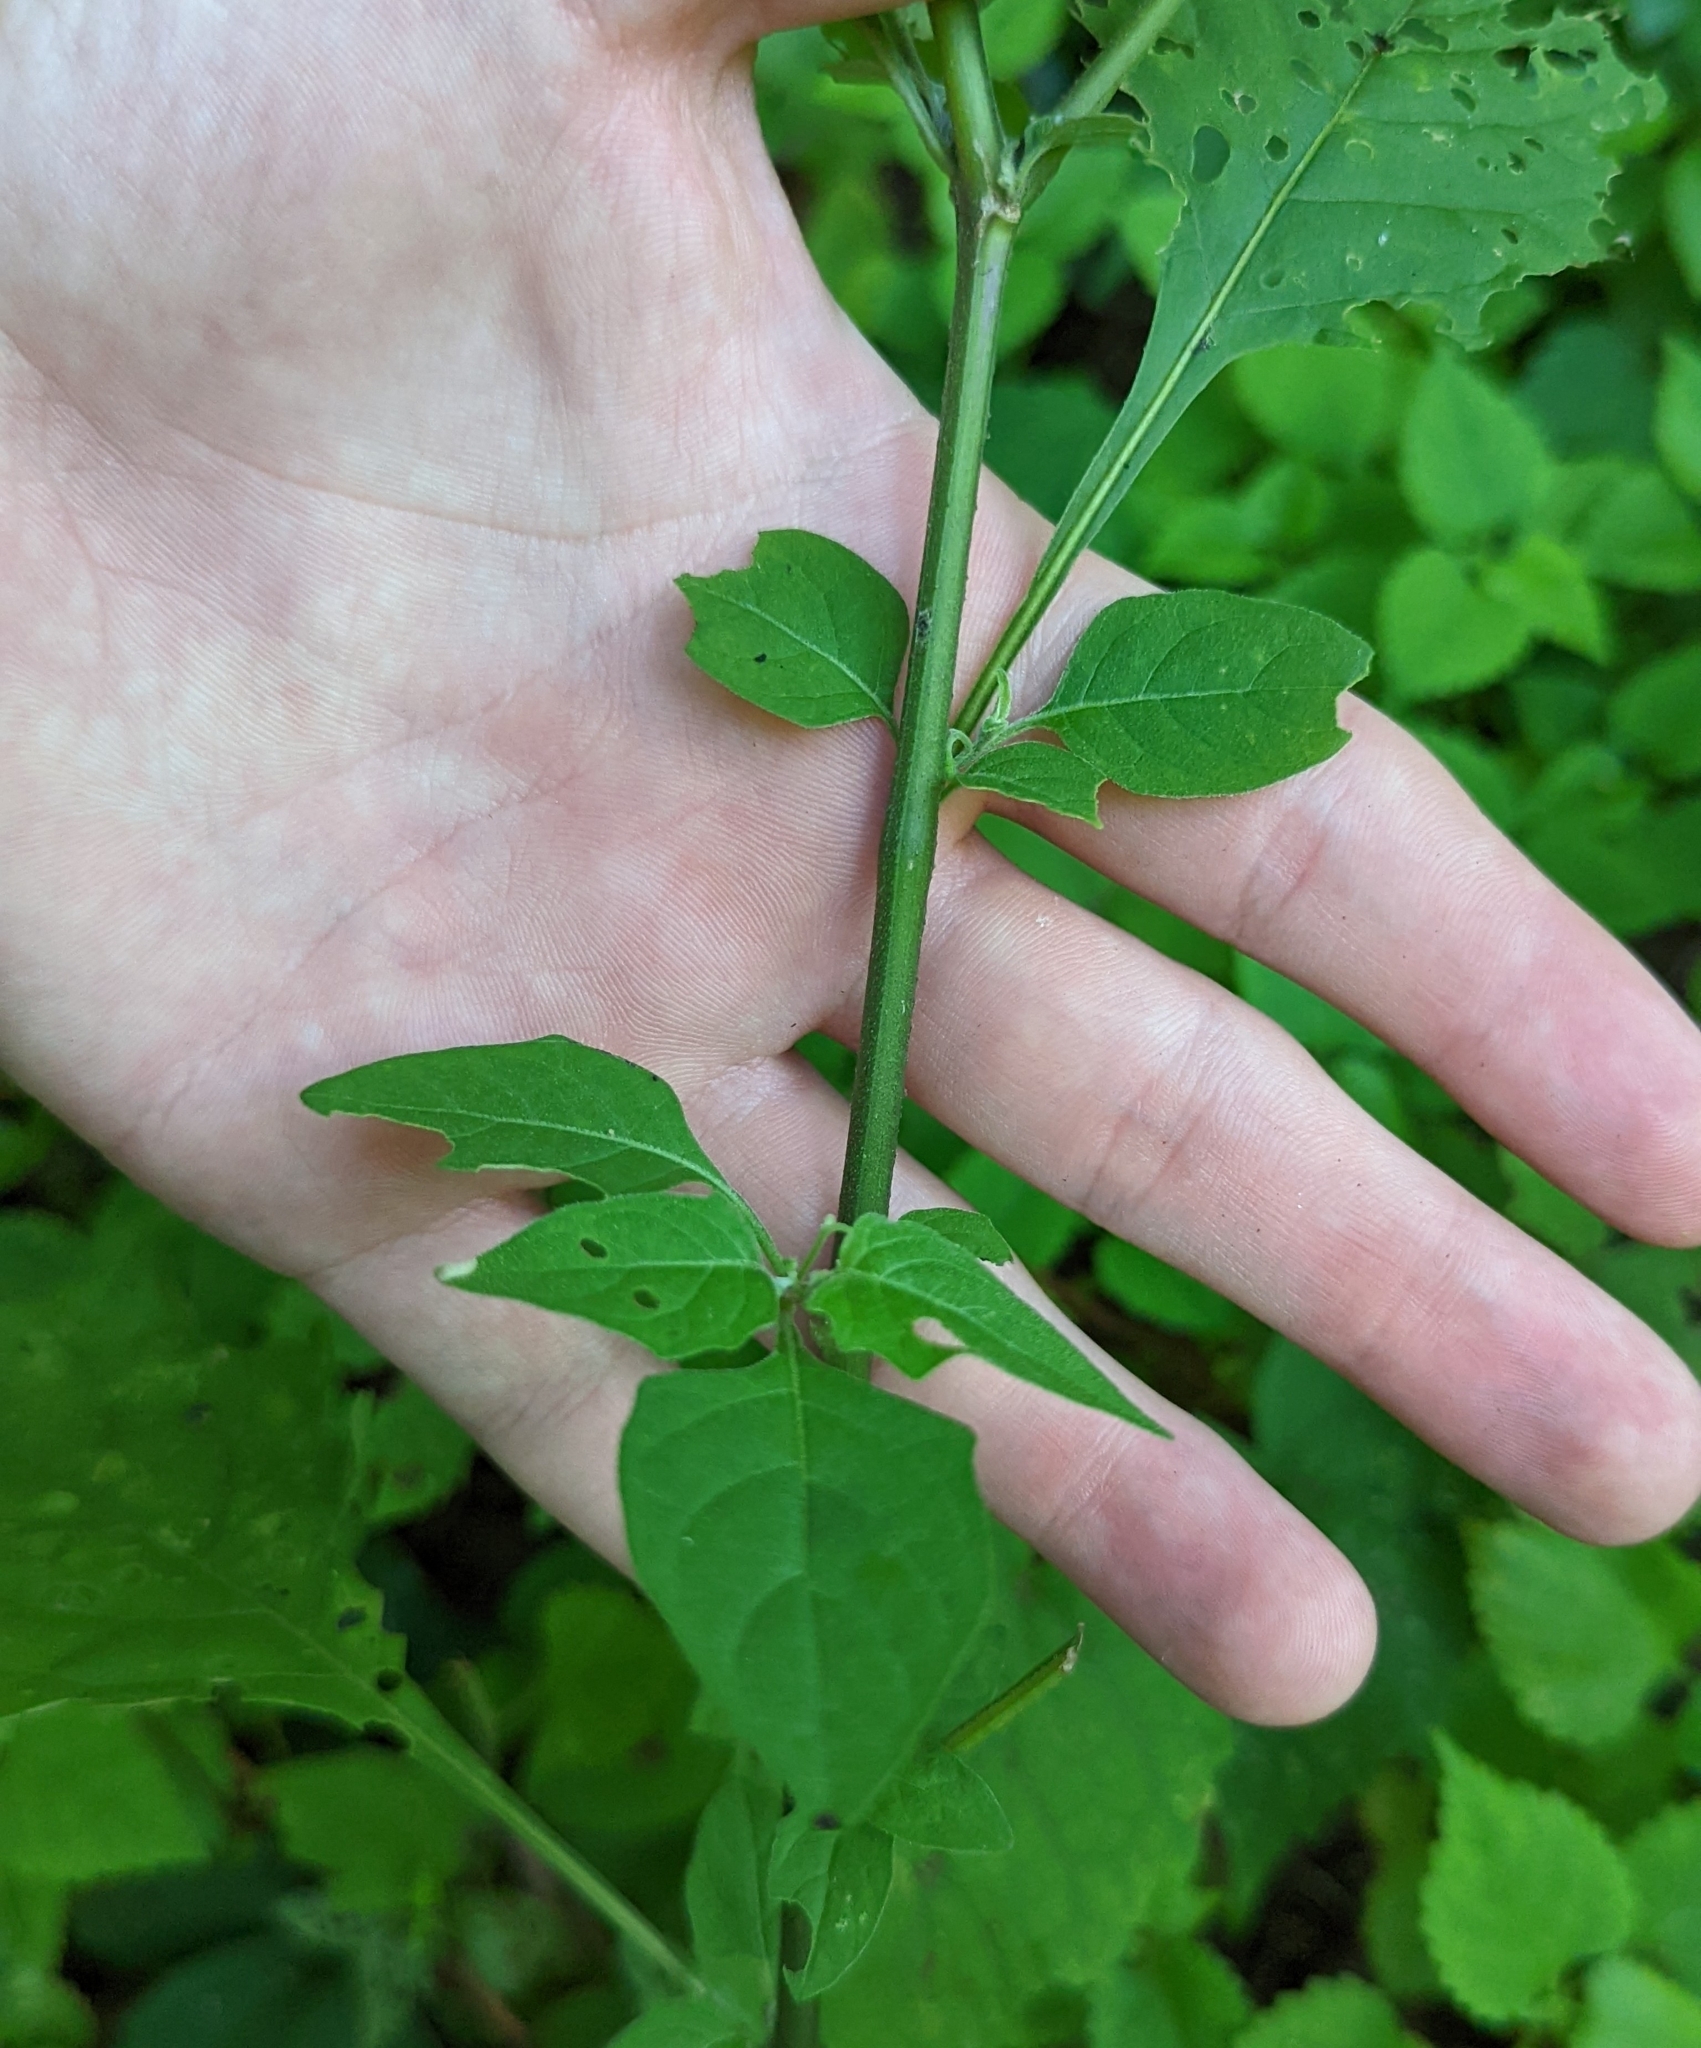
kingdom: Plantae
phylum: Tracheophyta
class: Magnoliopsida
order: Solanales
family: Solanaceae
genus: Solanum
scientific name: Solanum emulans
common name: Eastern black nightshade
